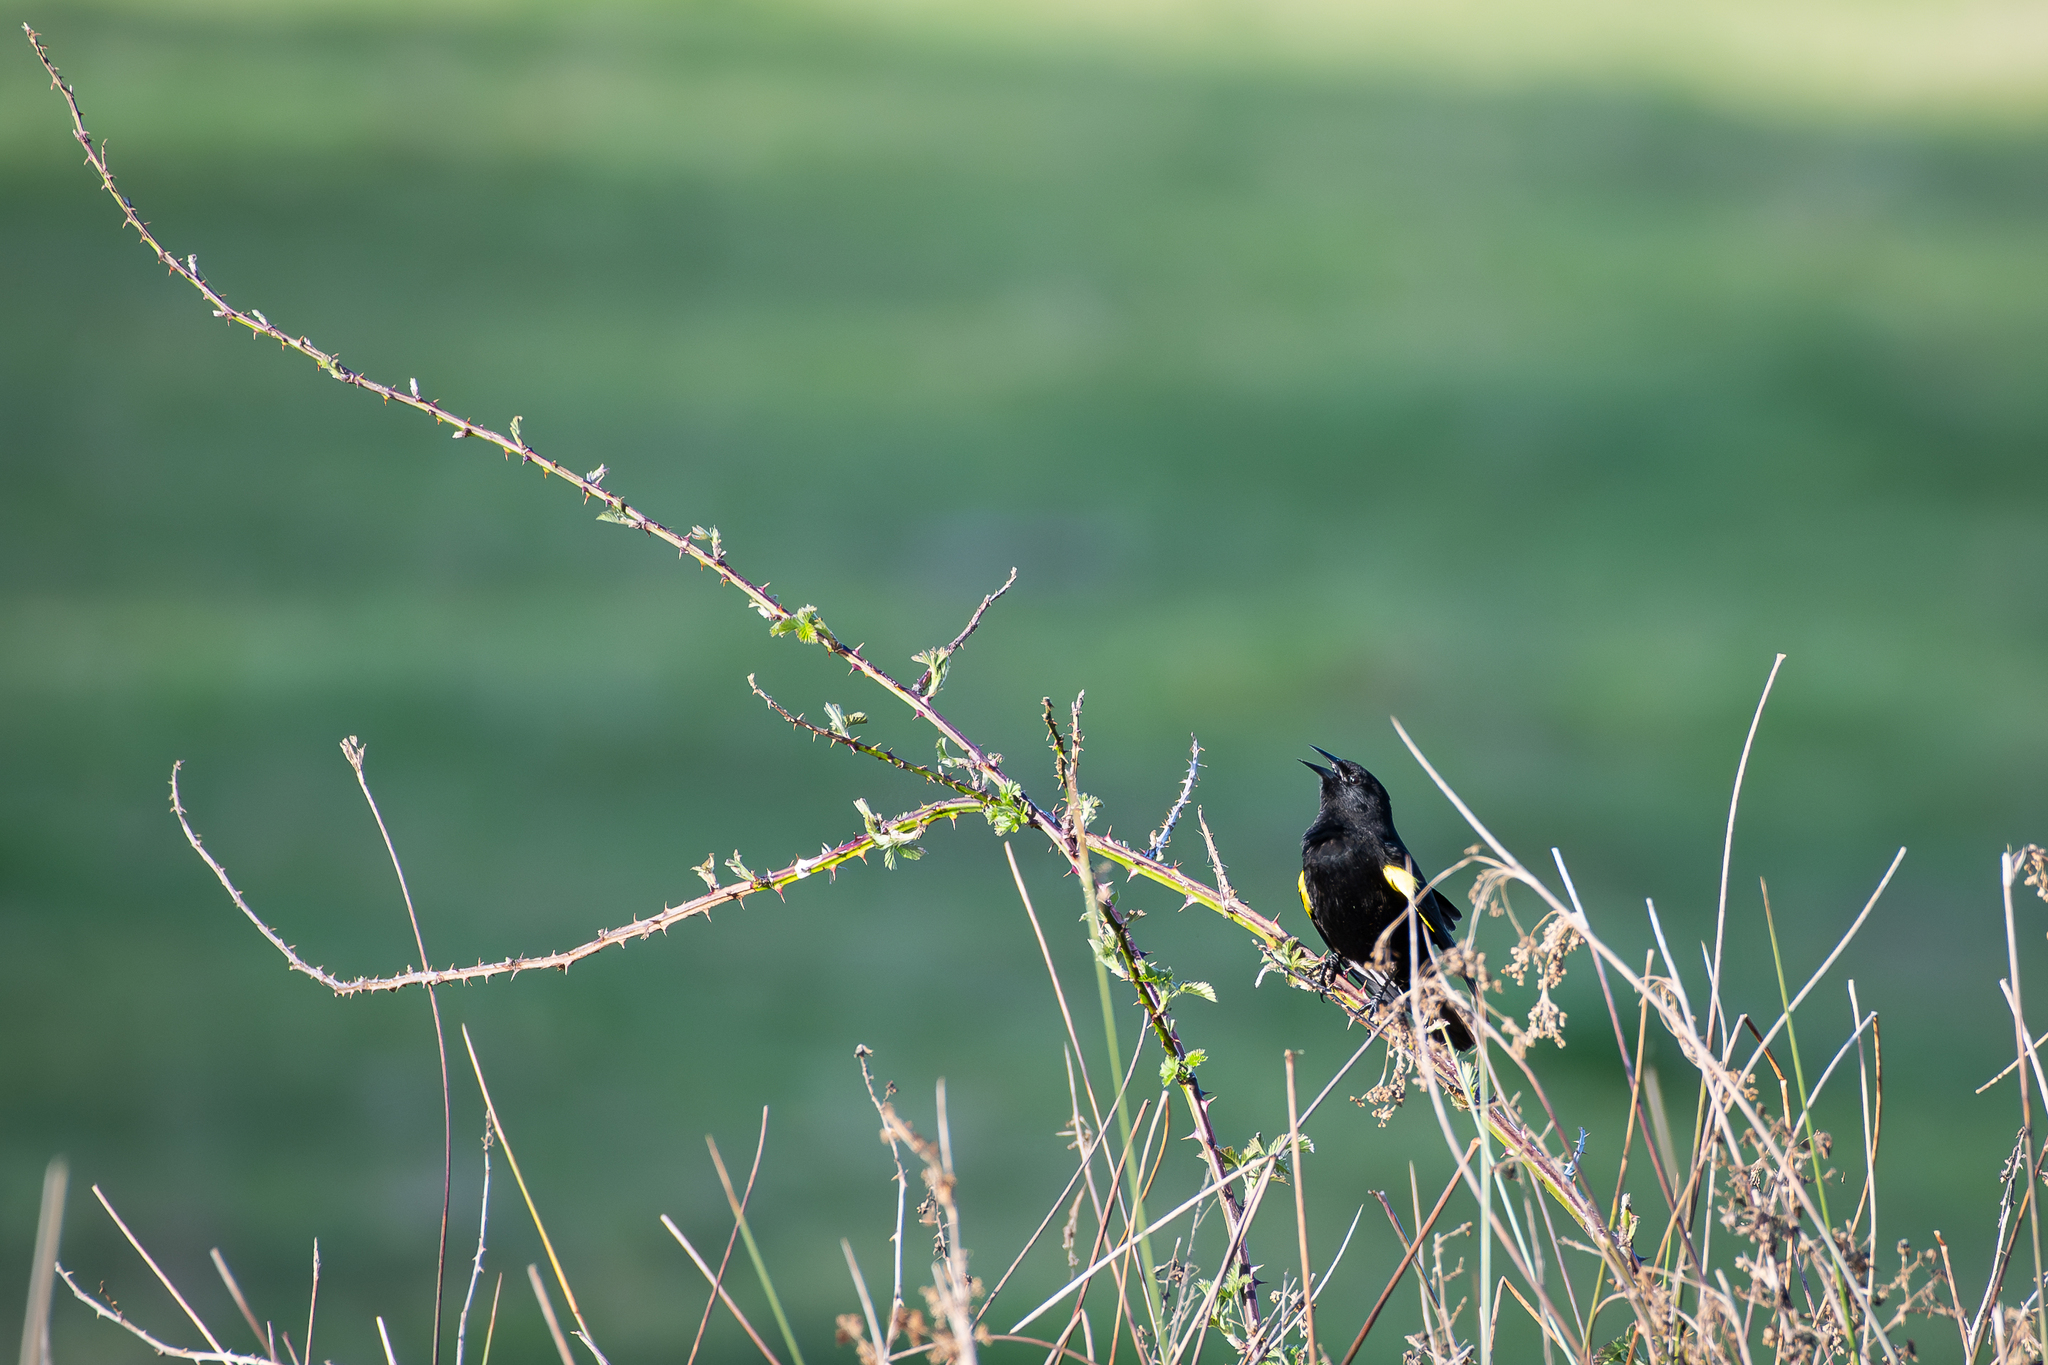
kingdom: Animalia
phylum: Chordata
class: Aves
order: Passeriformes
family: Icteridae
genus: Agelasticus
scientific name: Agelasticus thilius
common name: Yellow-winged blackbird
